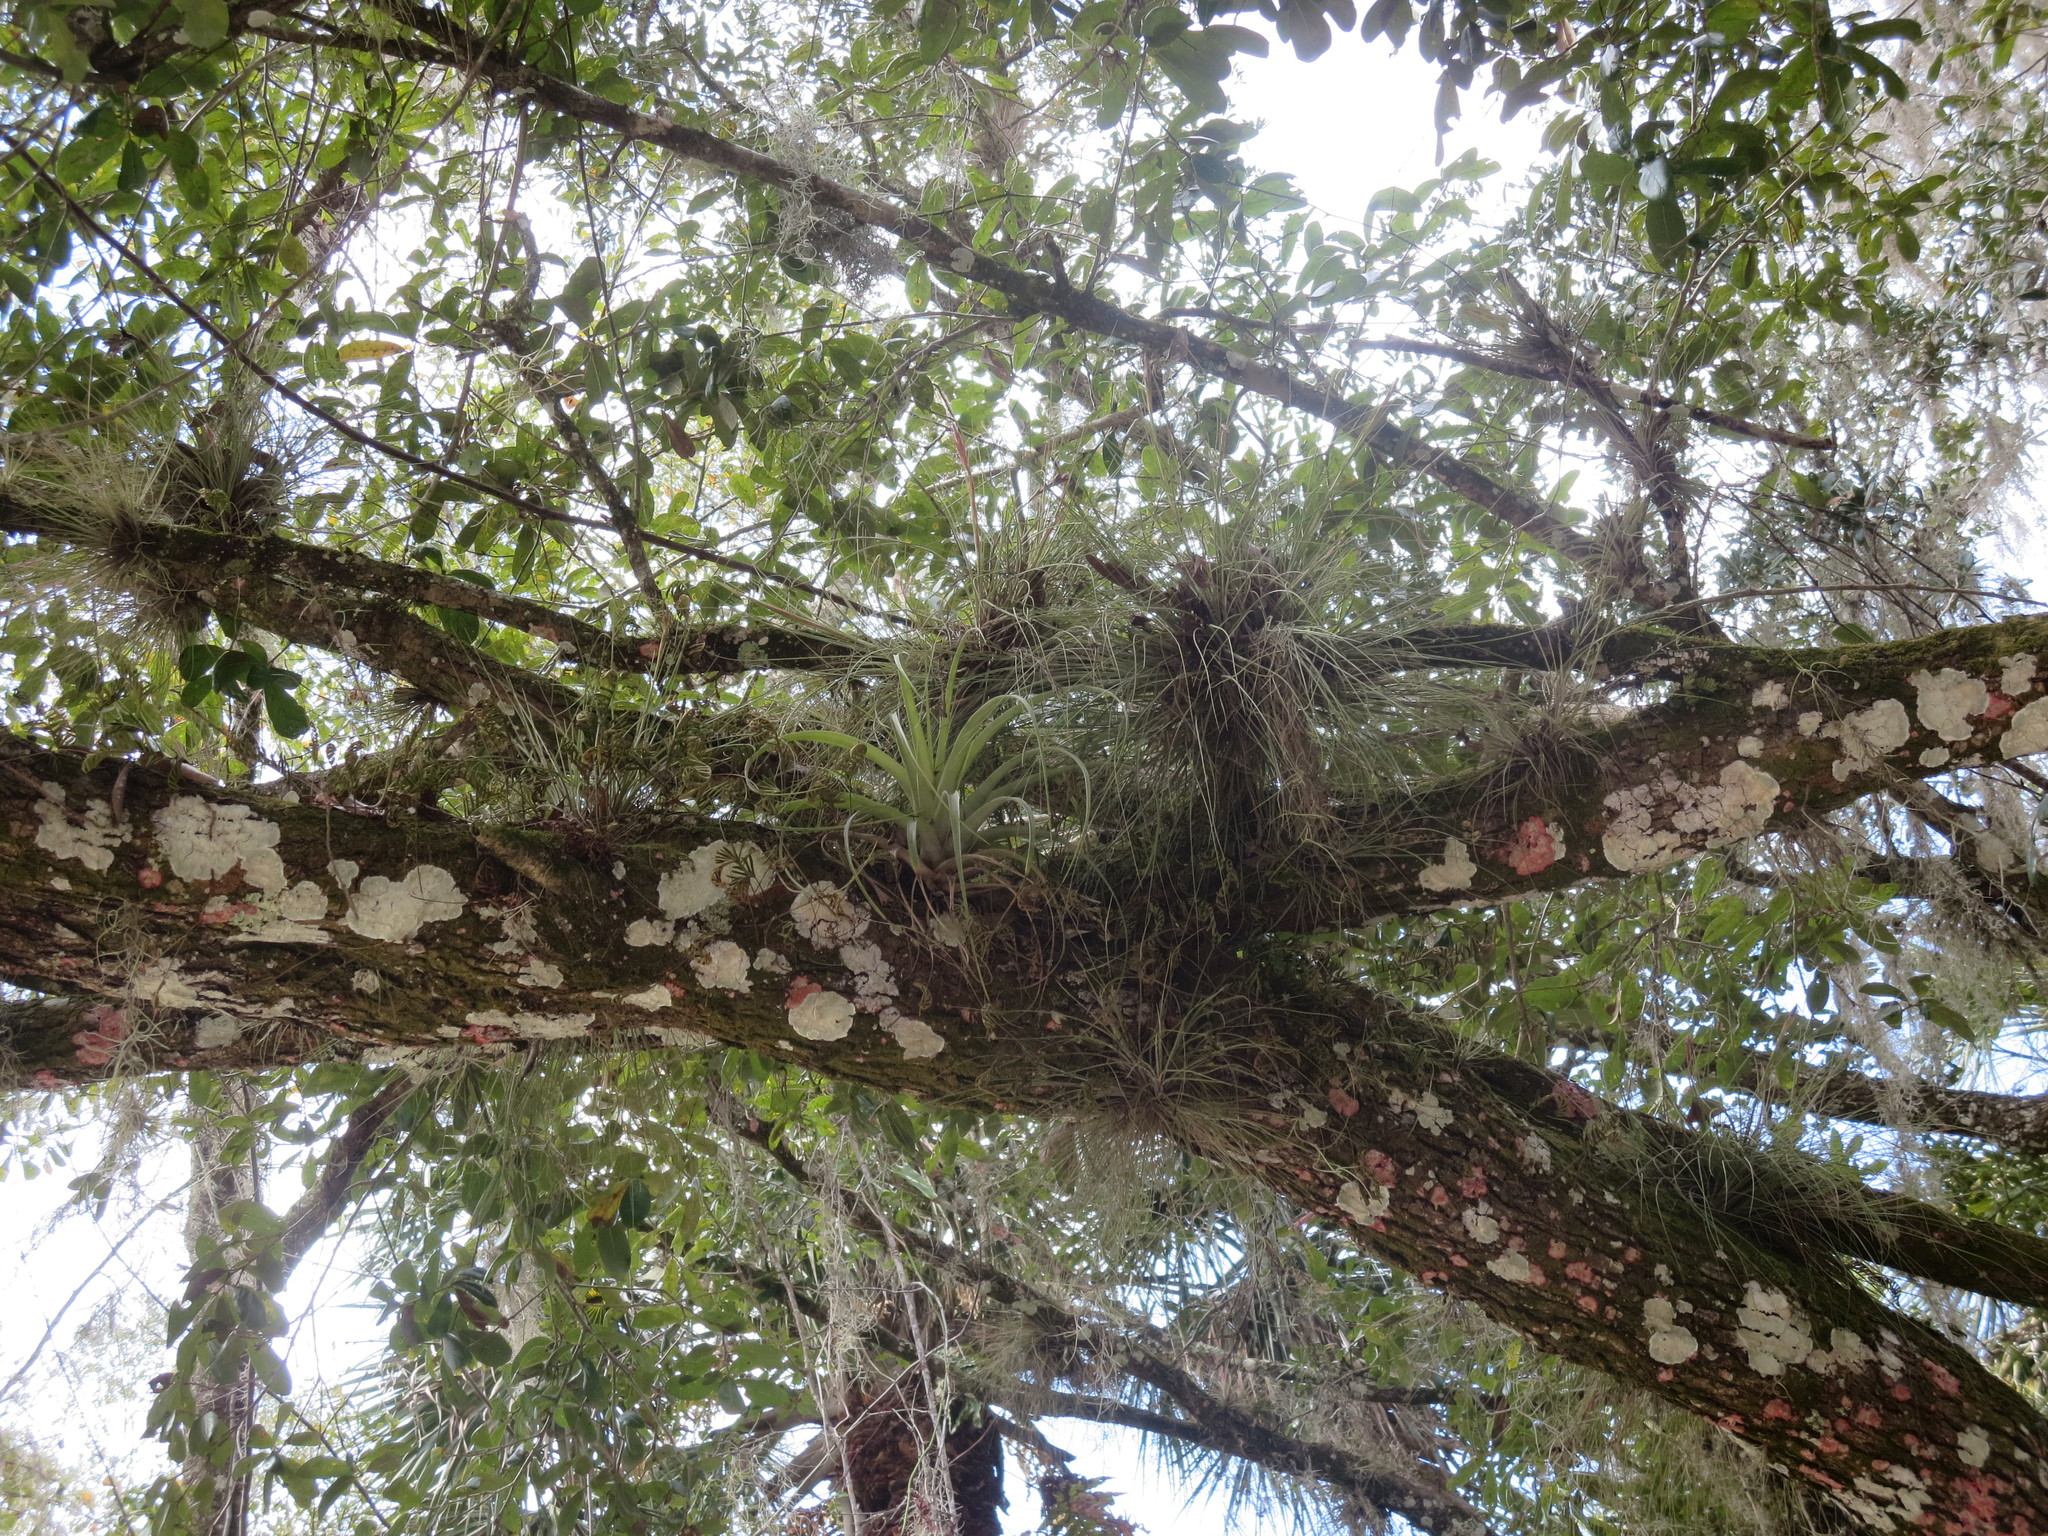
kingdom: Plantae
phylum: Tracheophyta
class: Polypodiopsida
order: Polypodiales
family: Polypodiaceae
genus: Pleopeltis
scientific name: Pleopeltis michauxiana
